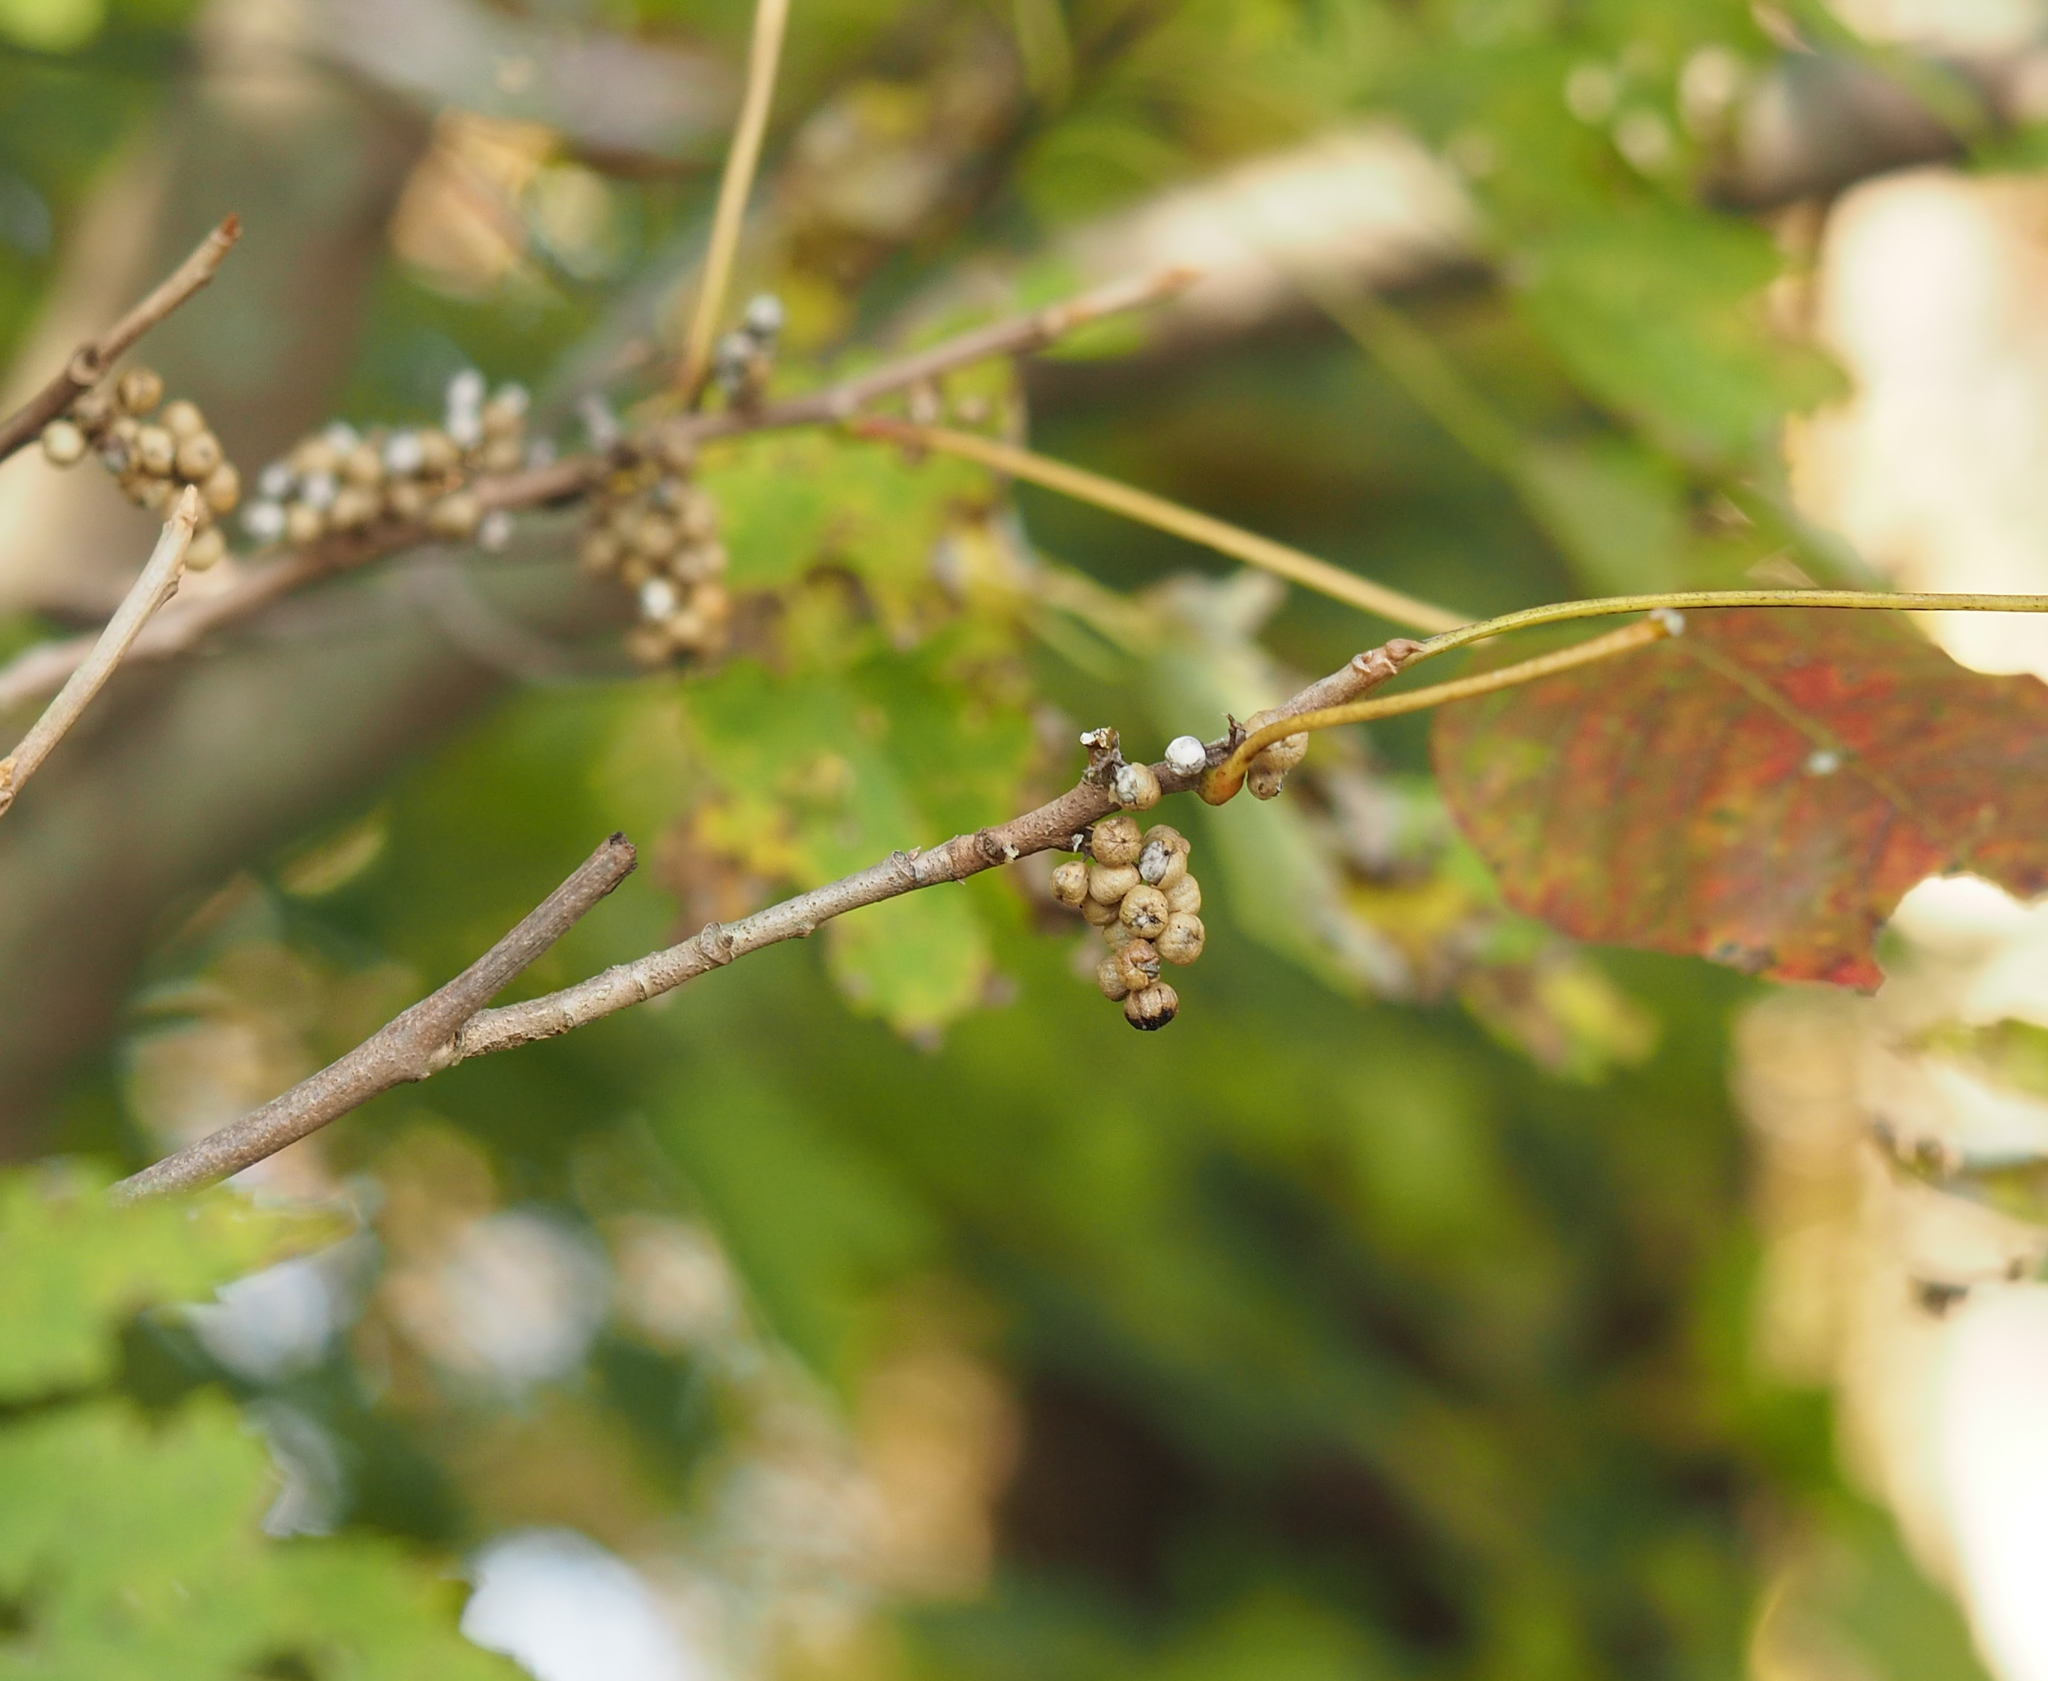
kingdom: Plantae
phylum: Tracheophyta
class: Magnoliopsida
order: Sapindales
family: Anacardiaceae
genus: Toxicodendron
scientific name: Toxicodendron radicans
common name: Poison ivy
